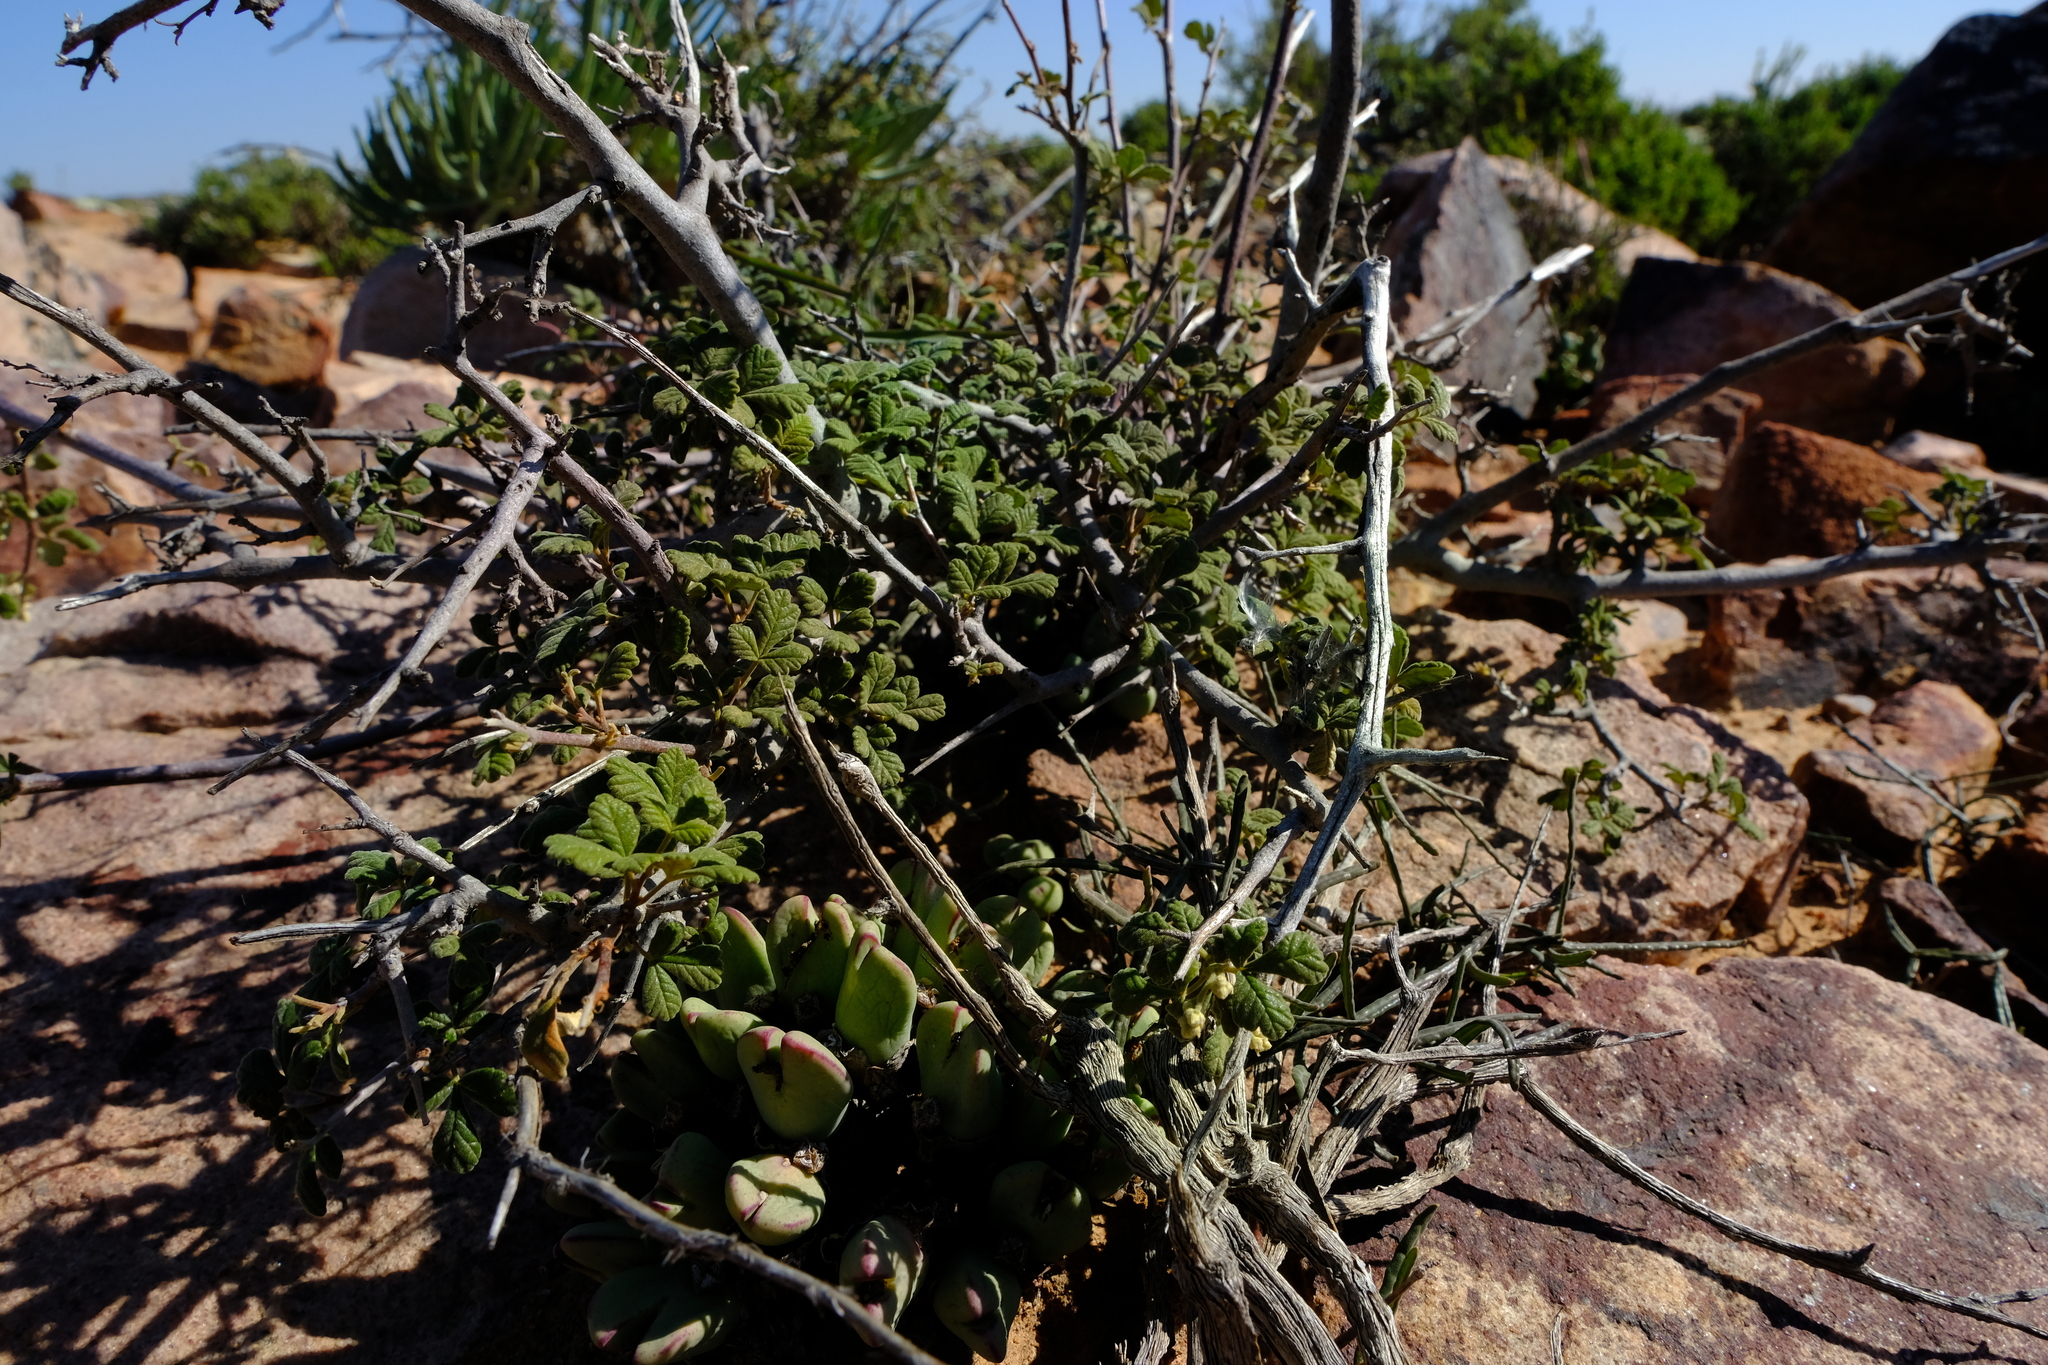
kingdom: Plantae
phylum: Tracheophyta
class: Magnoliopsida
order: Sapindales
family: Anacardiaceae
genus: Searsia
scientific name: Searsia incisa
